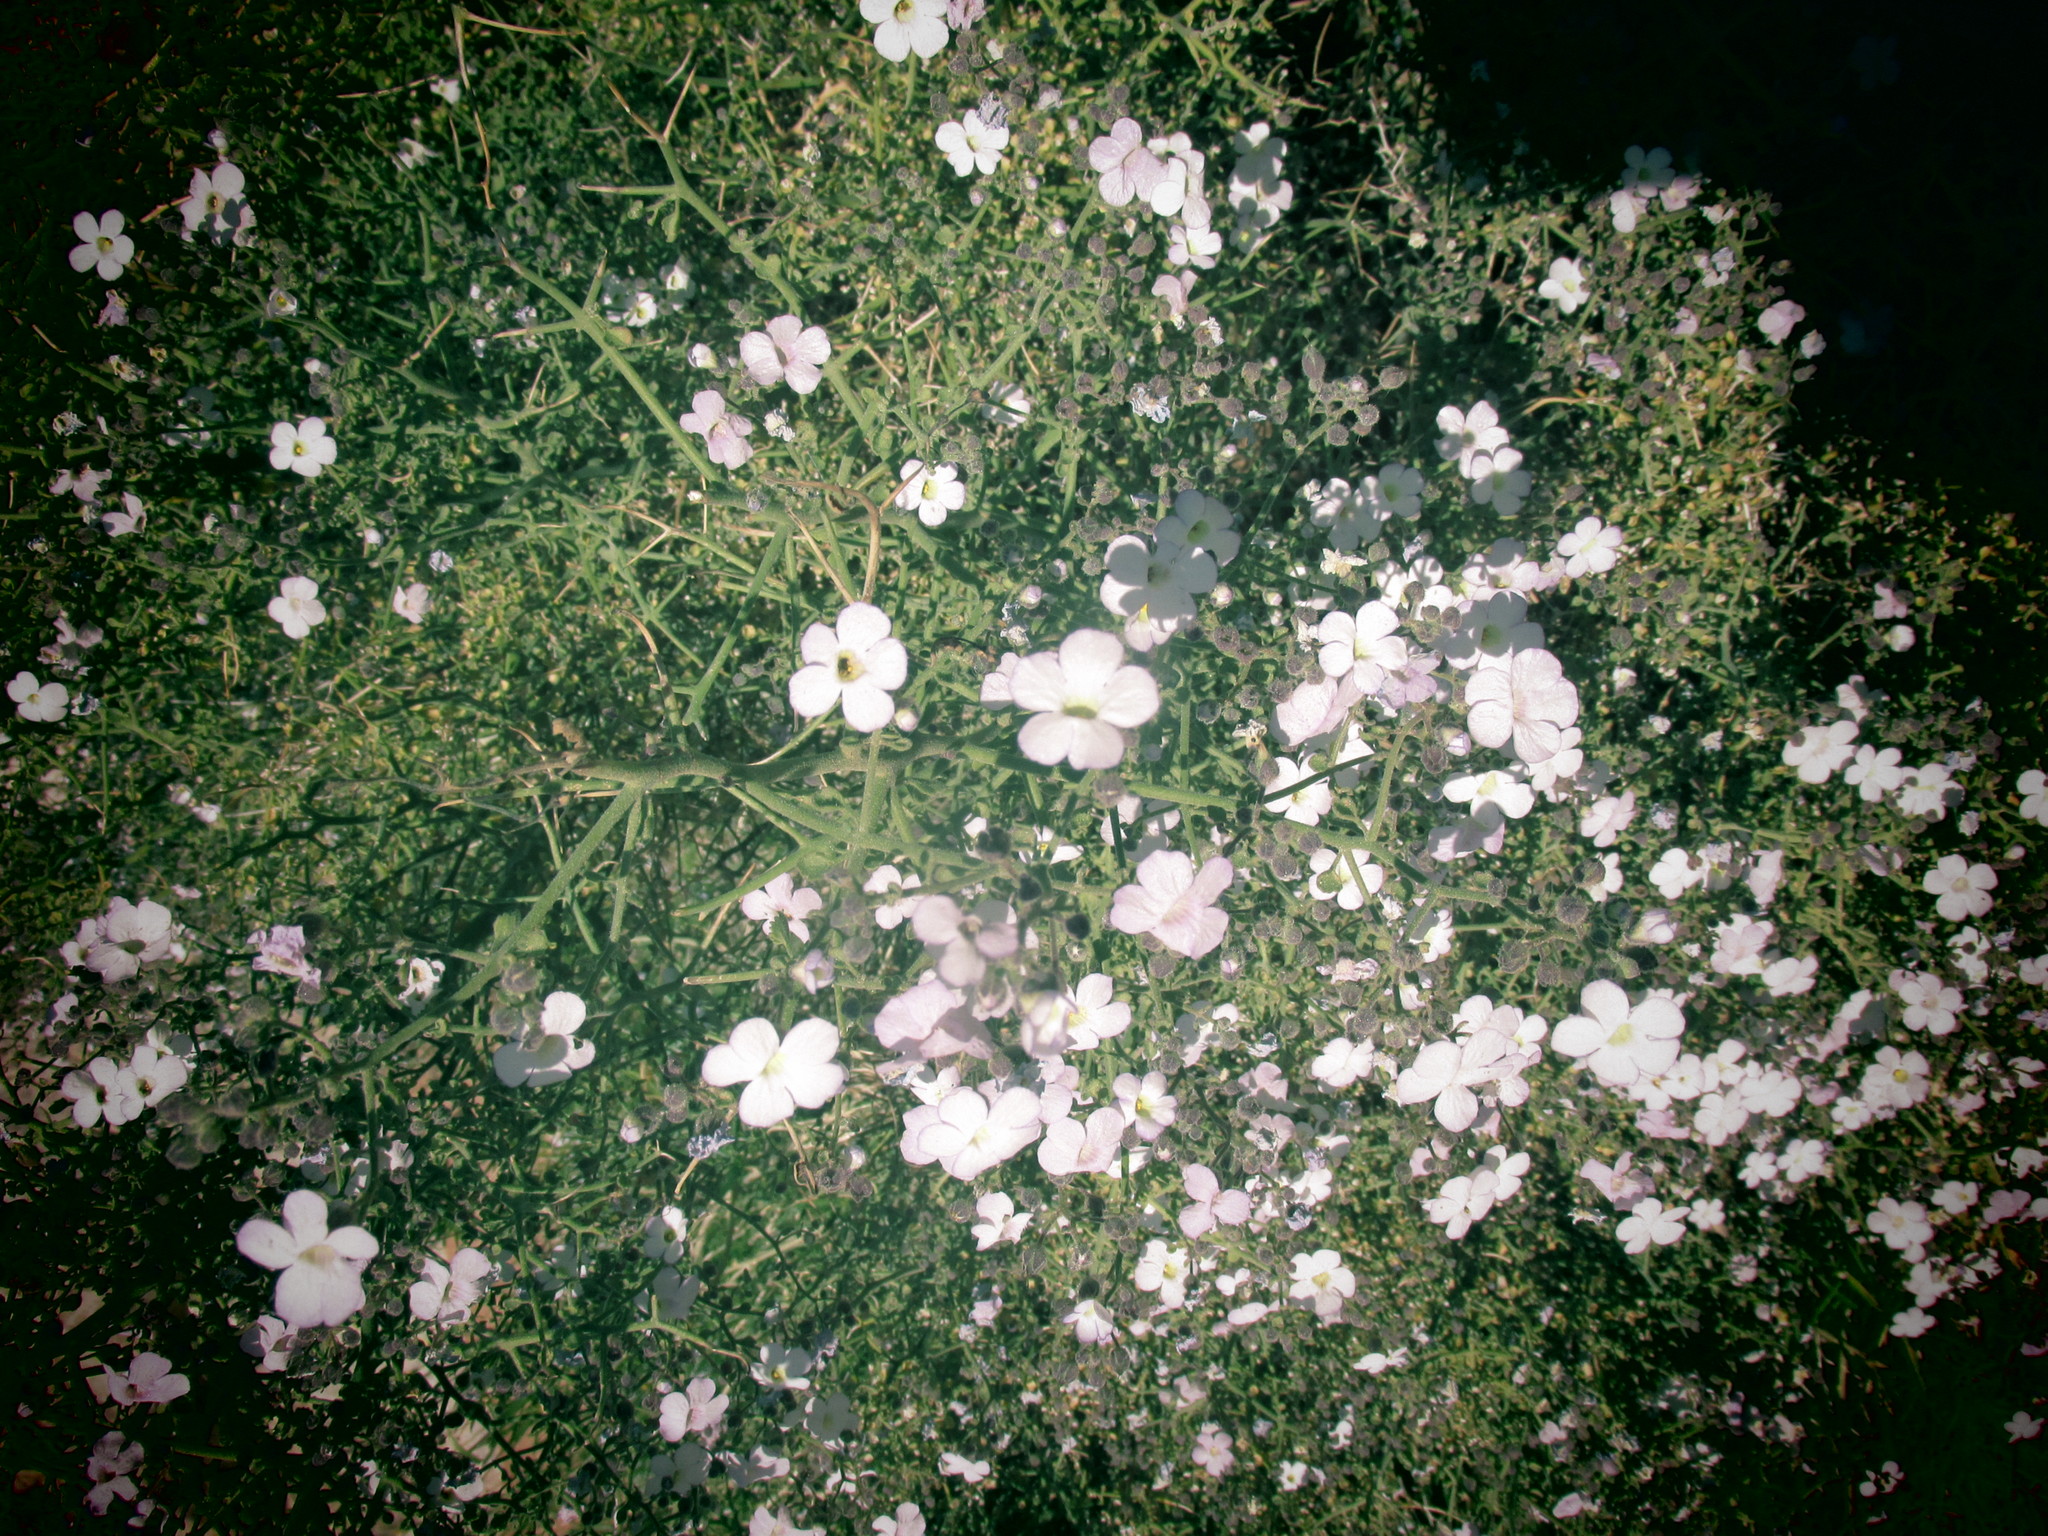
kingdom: Plantae
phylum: Tracheophyta
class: Magnoliopsida
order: Lamiales
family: Scrophulariaceae
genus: Jamesbrittenia
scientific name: Jamesbrittenia ramosissima
